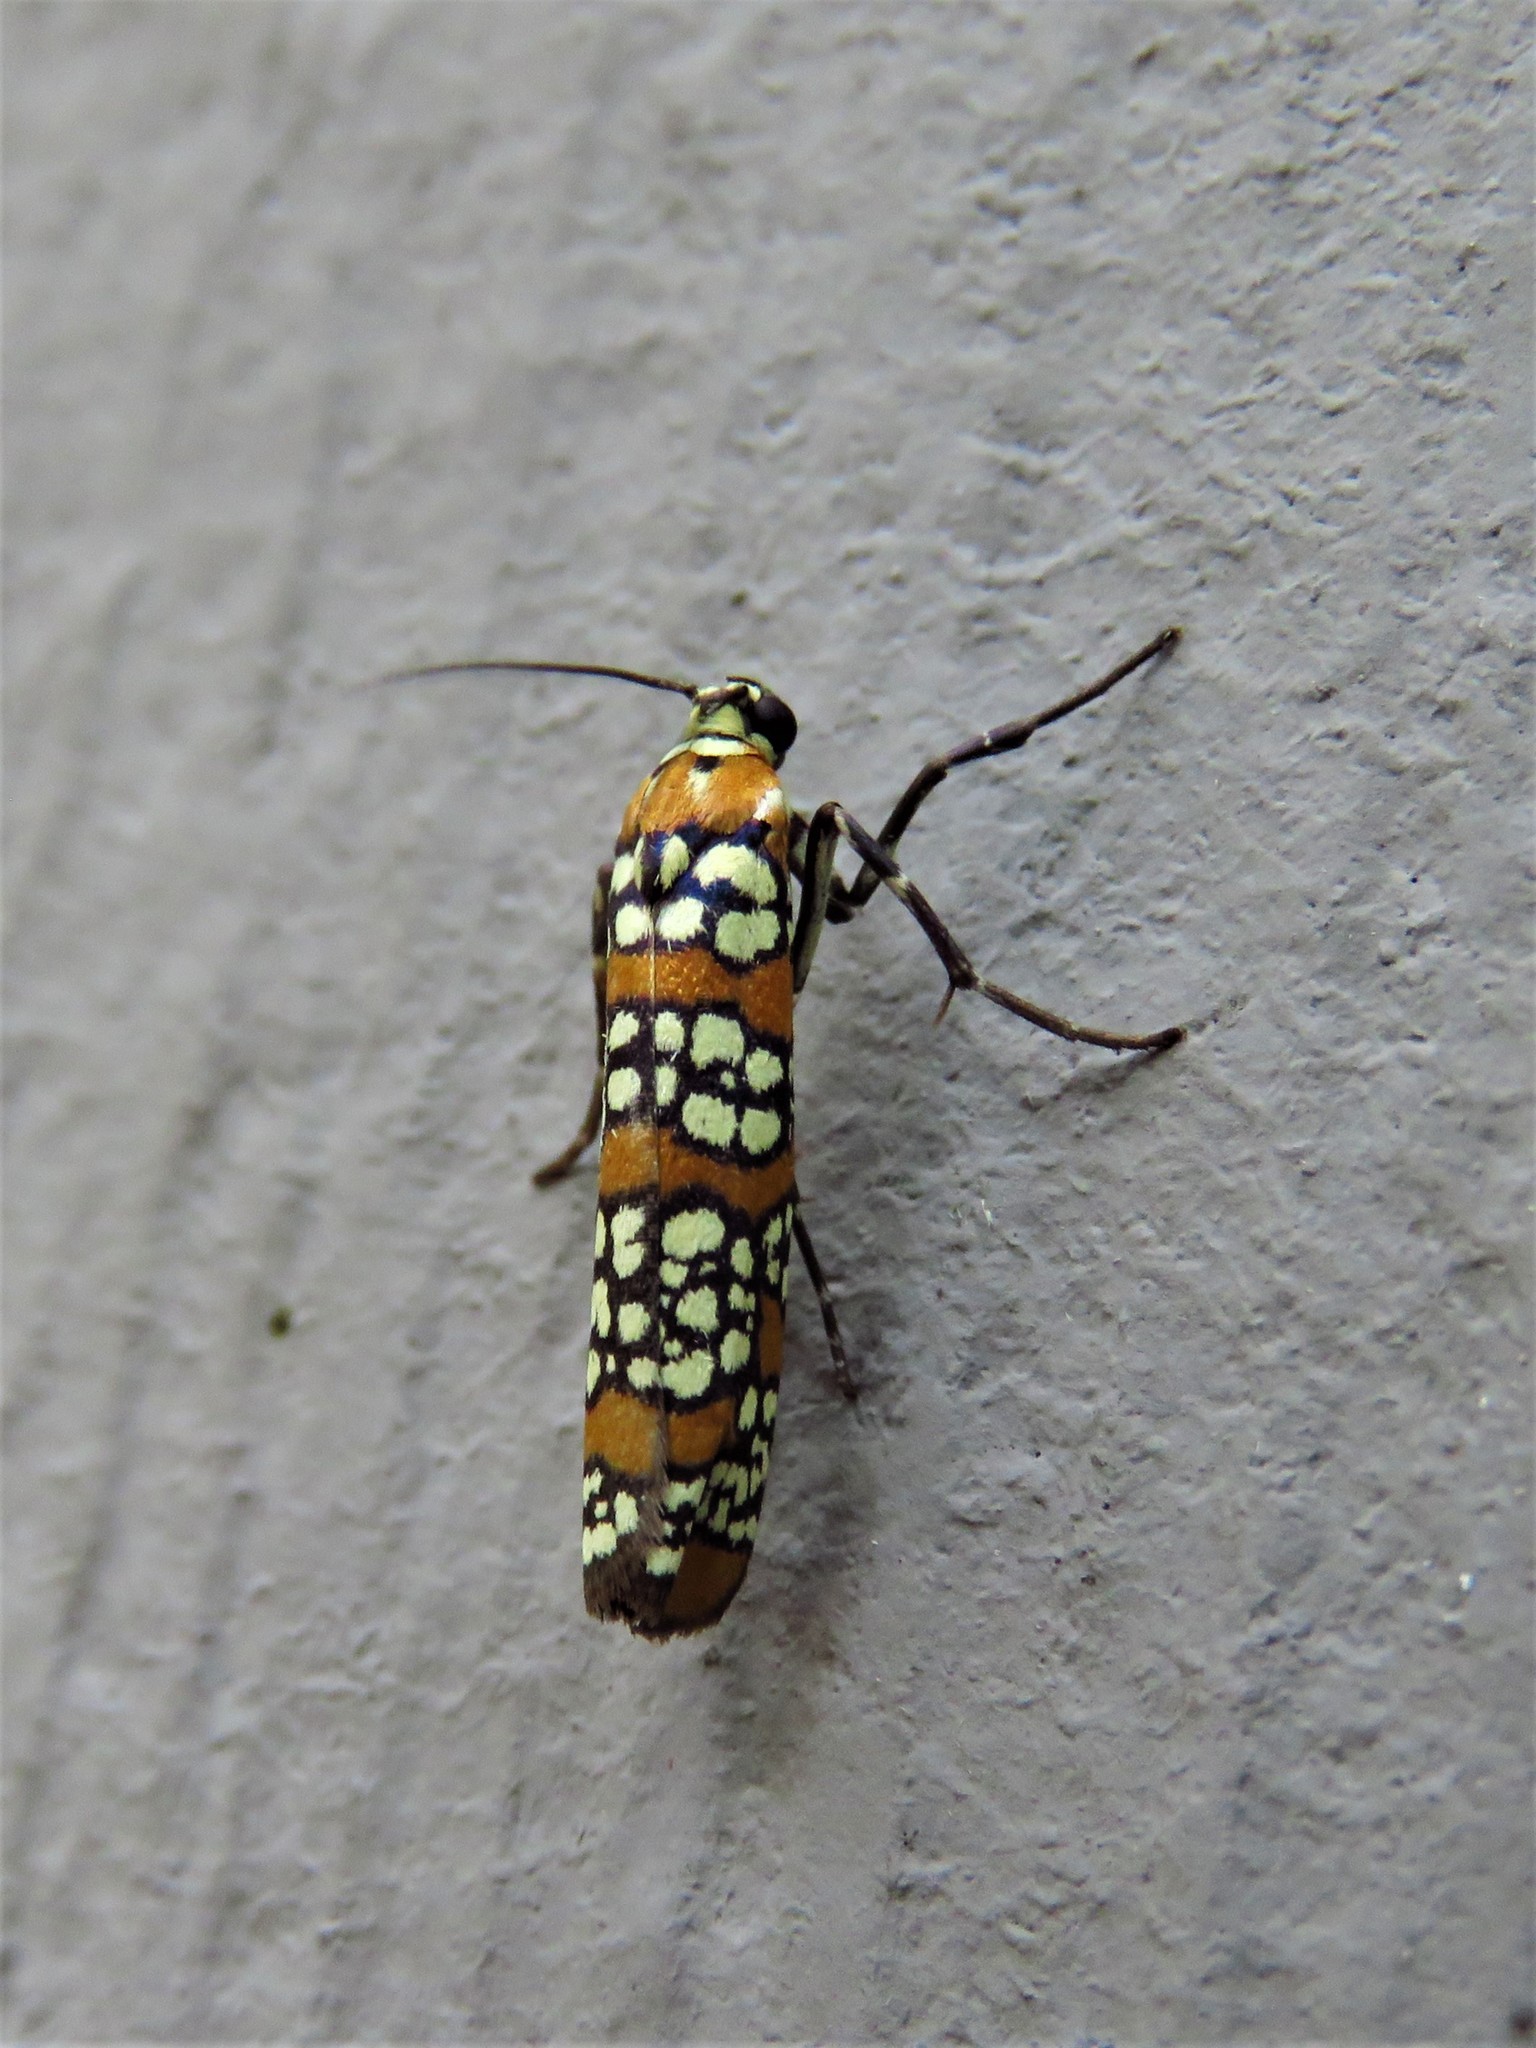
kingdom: Animalia
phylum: Arthropoda
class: Insecta
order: Lepidoptera
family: Attevidae
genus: Atteva
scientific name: Atteva punctella
